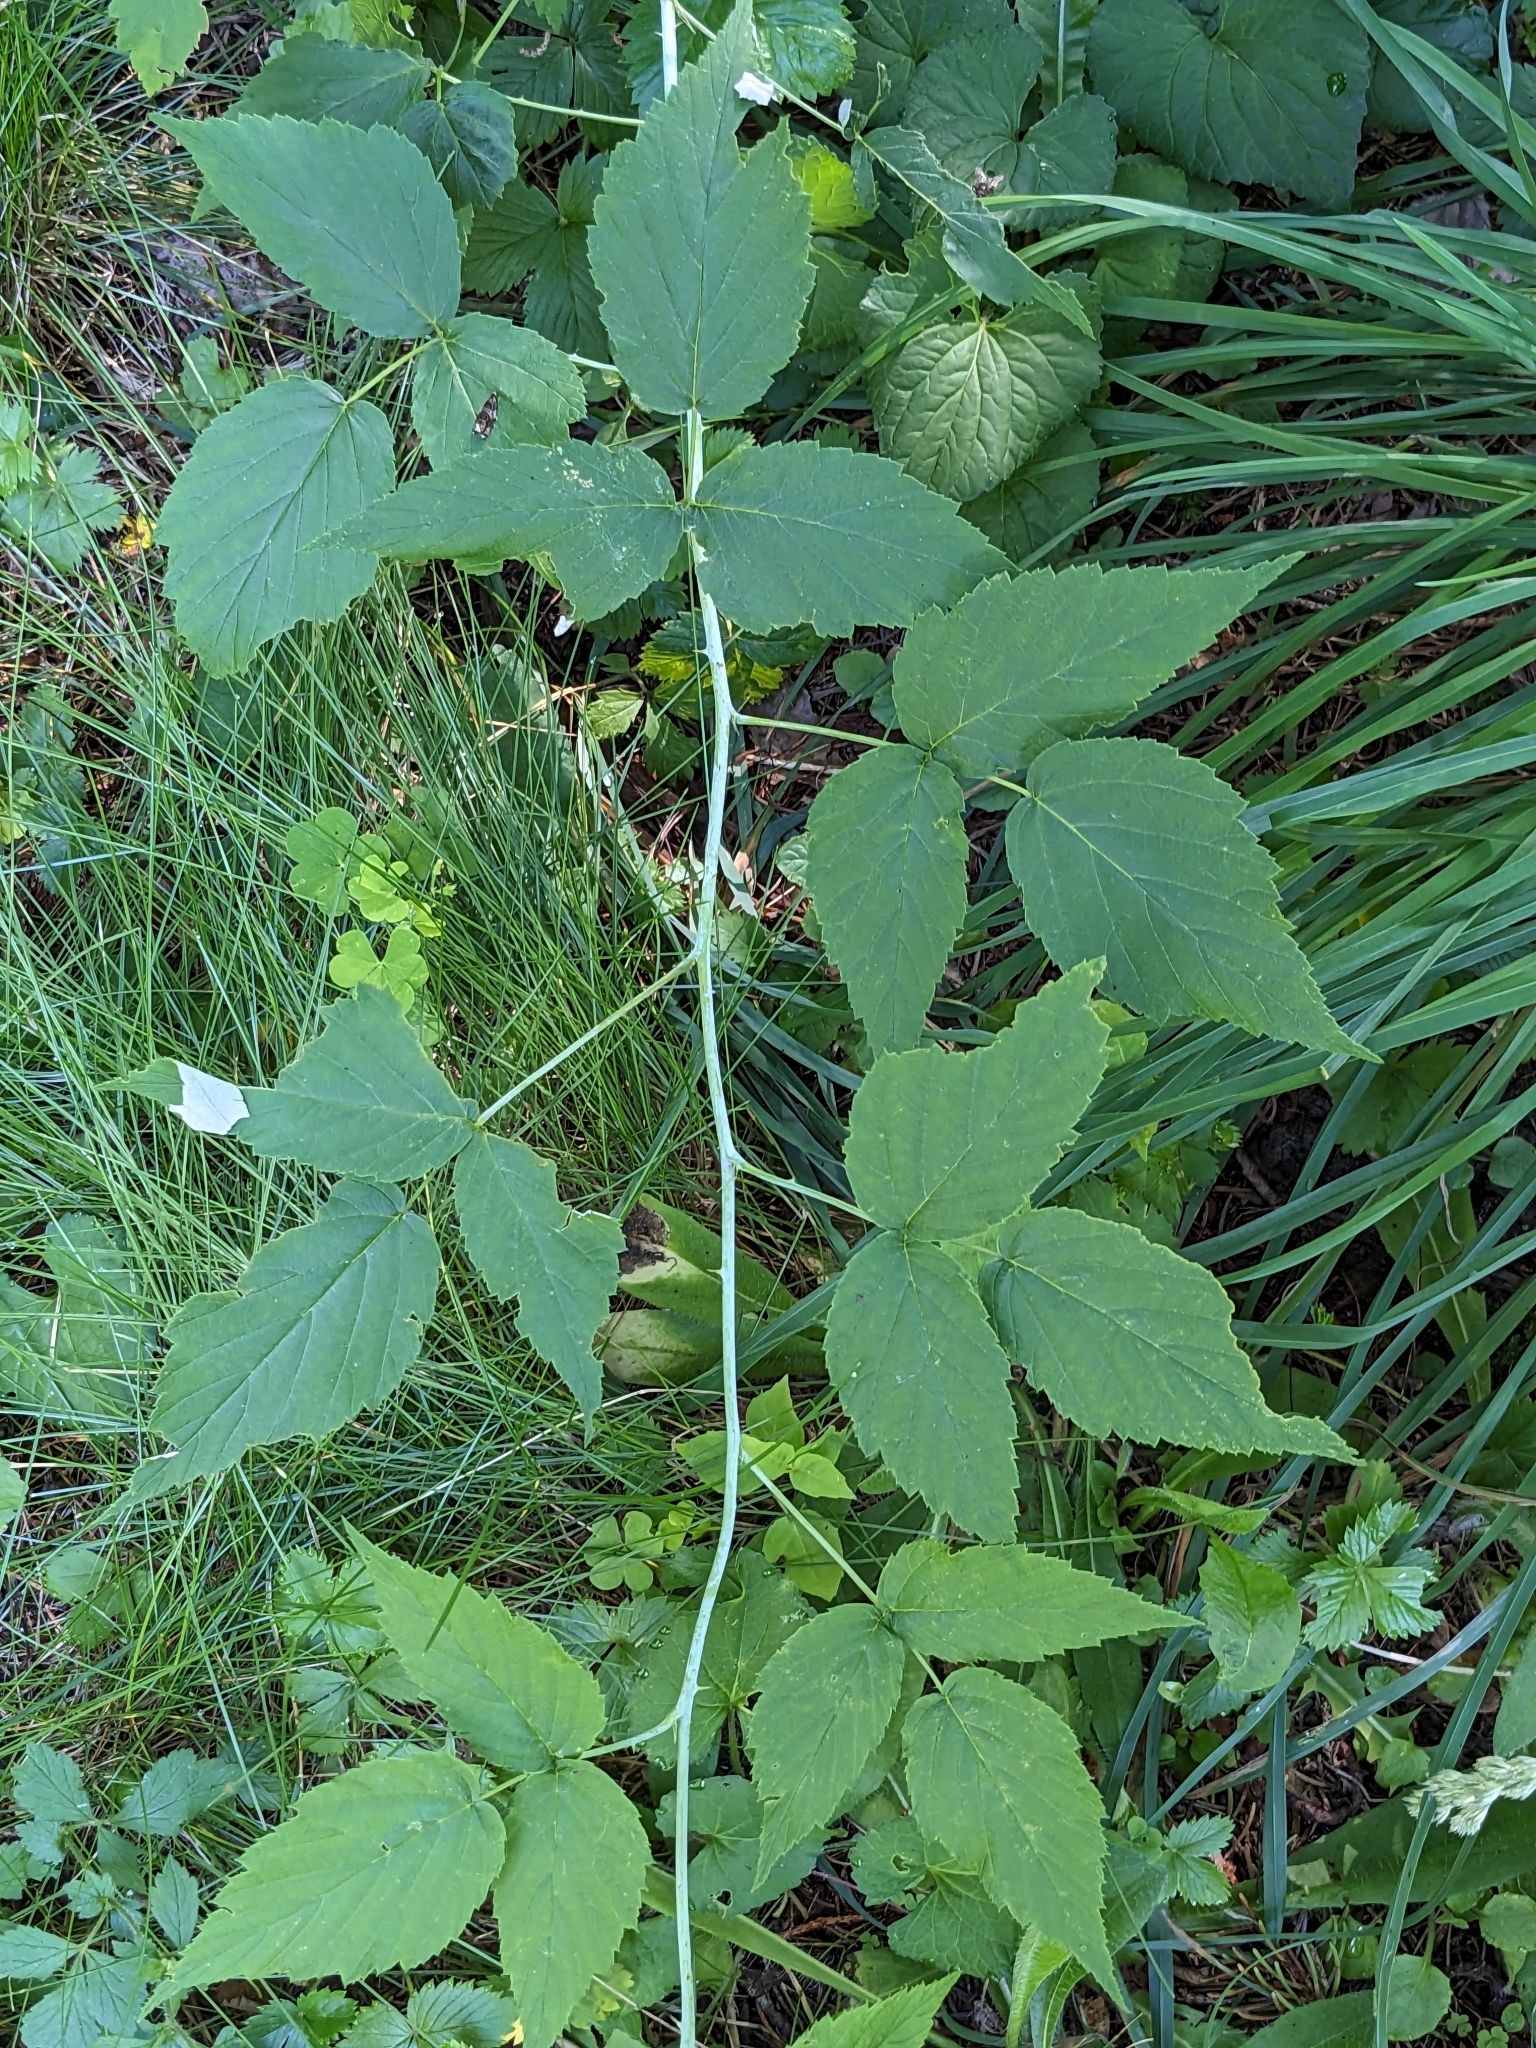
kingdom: Plantae
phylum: Tracheophyta
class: Magnoliopsida
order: Rosales
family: Rosaceae
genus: Rubus
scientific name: Rubus occidentalis
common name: Black raspberry
